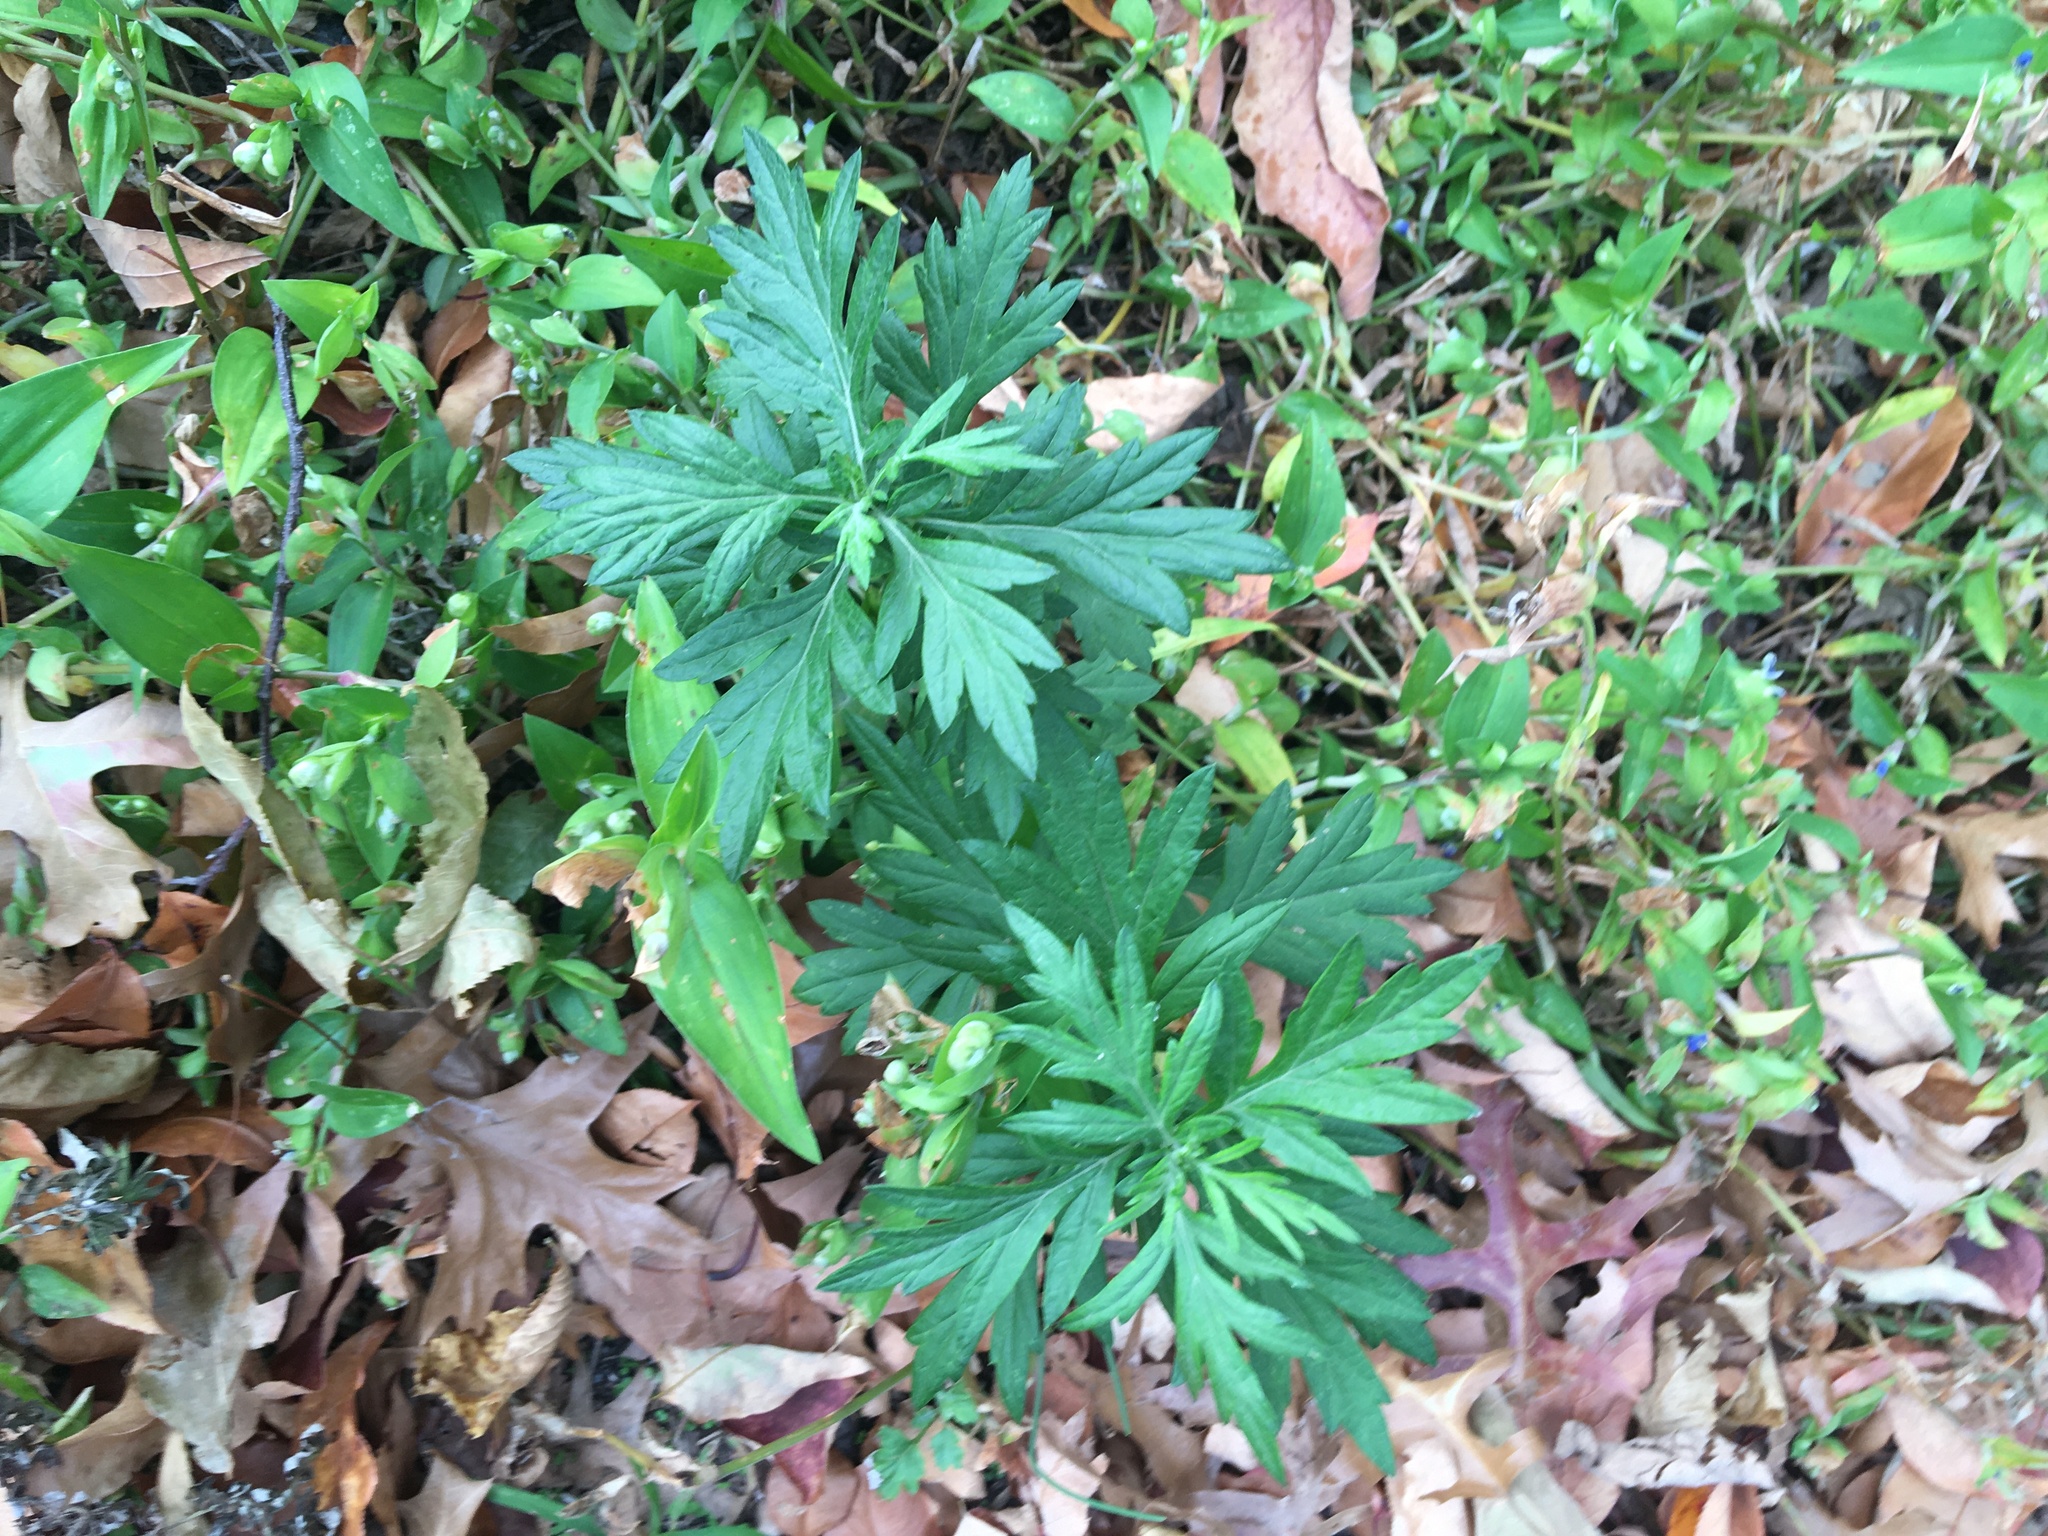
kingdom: Plantae
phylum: Tracheophyta
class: Magnoliopsida
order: Asterales
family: Asteraceae
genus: Artemisia
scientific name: Artemisia vulgaris
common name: Mugwort
